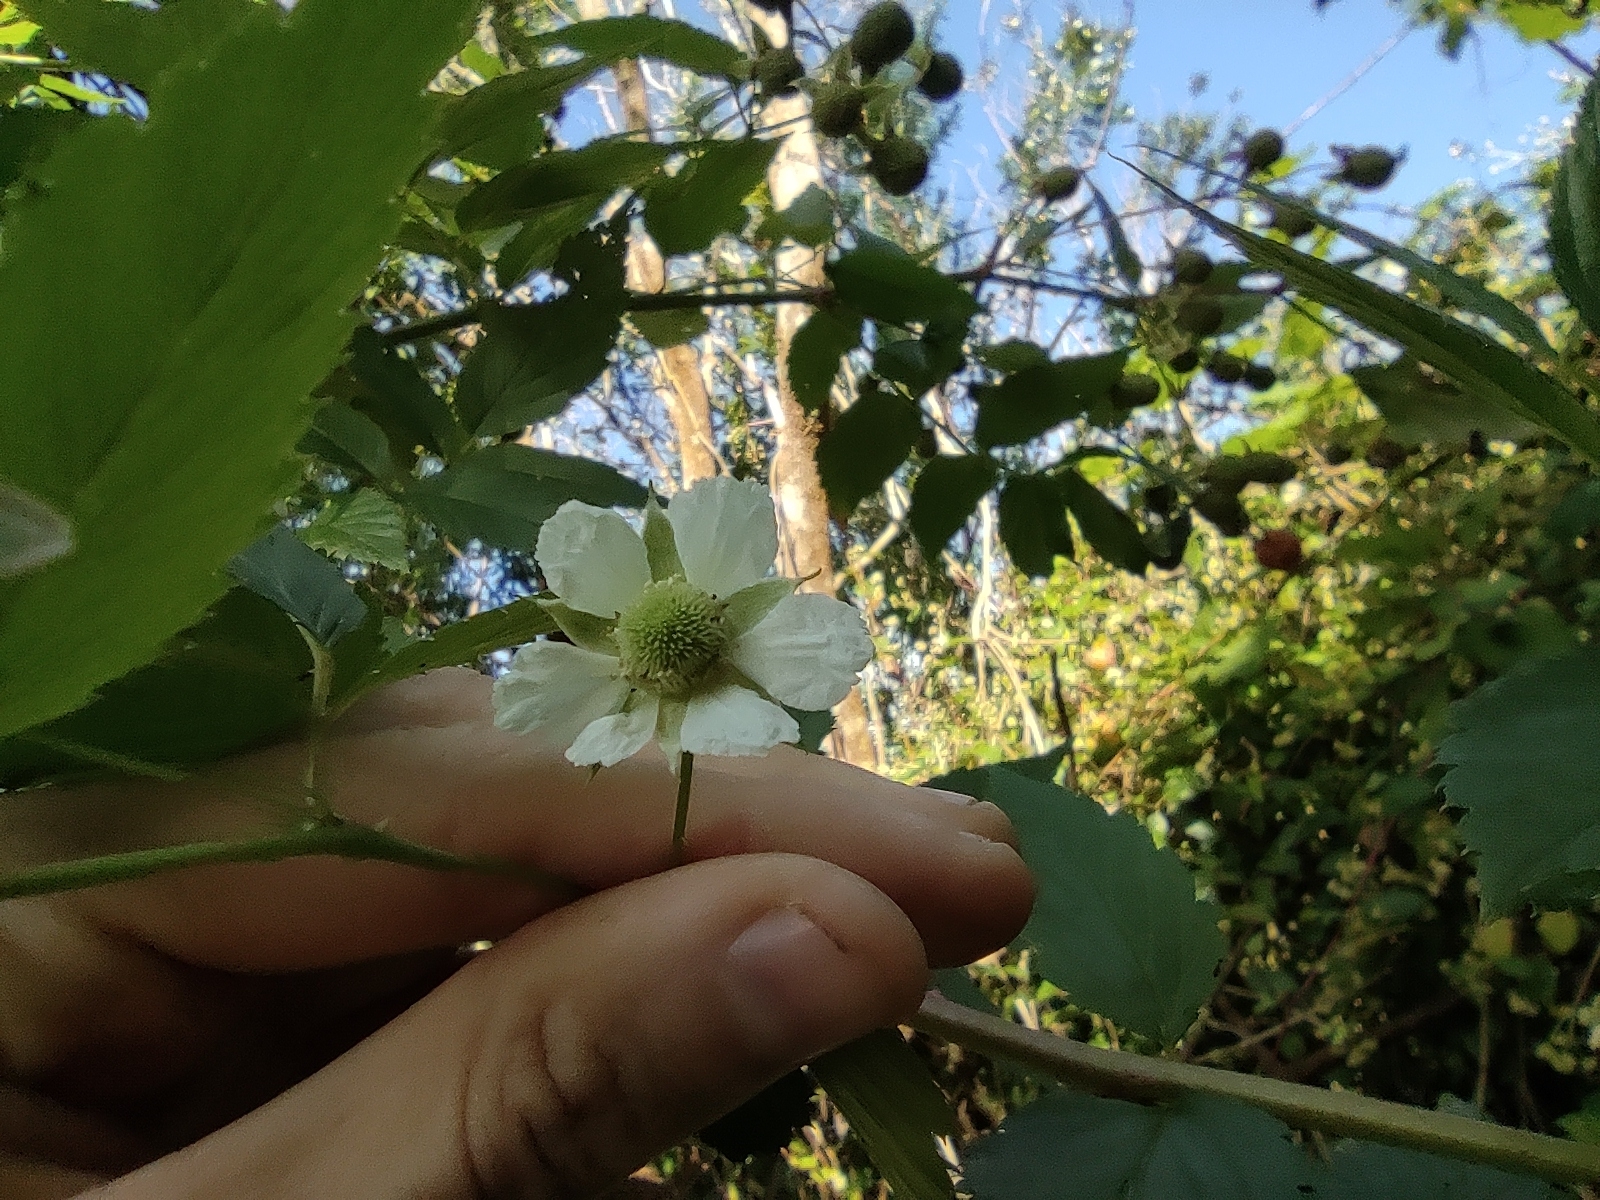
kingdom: Plantae
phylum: Tracheophyta
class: Magnoliopsida
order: Rosales
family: Rosaceae
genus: Rubus
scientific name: Rubus rosifolius
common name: Roseleaf raspberry
